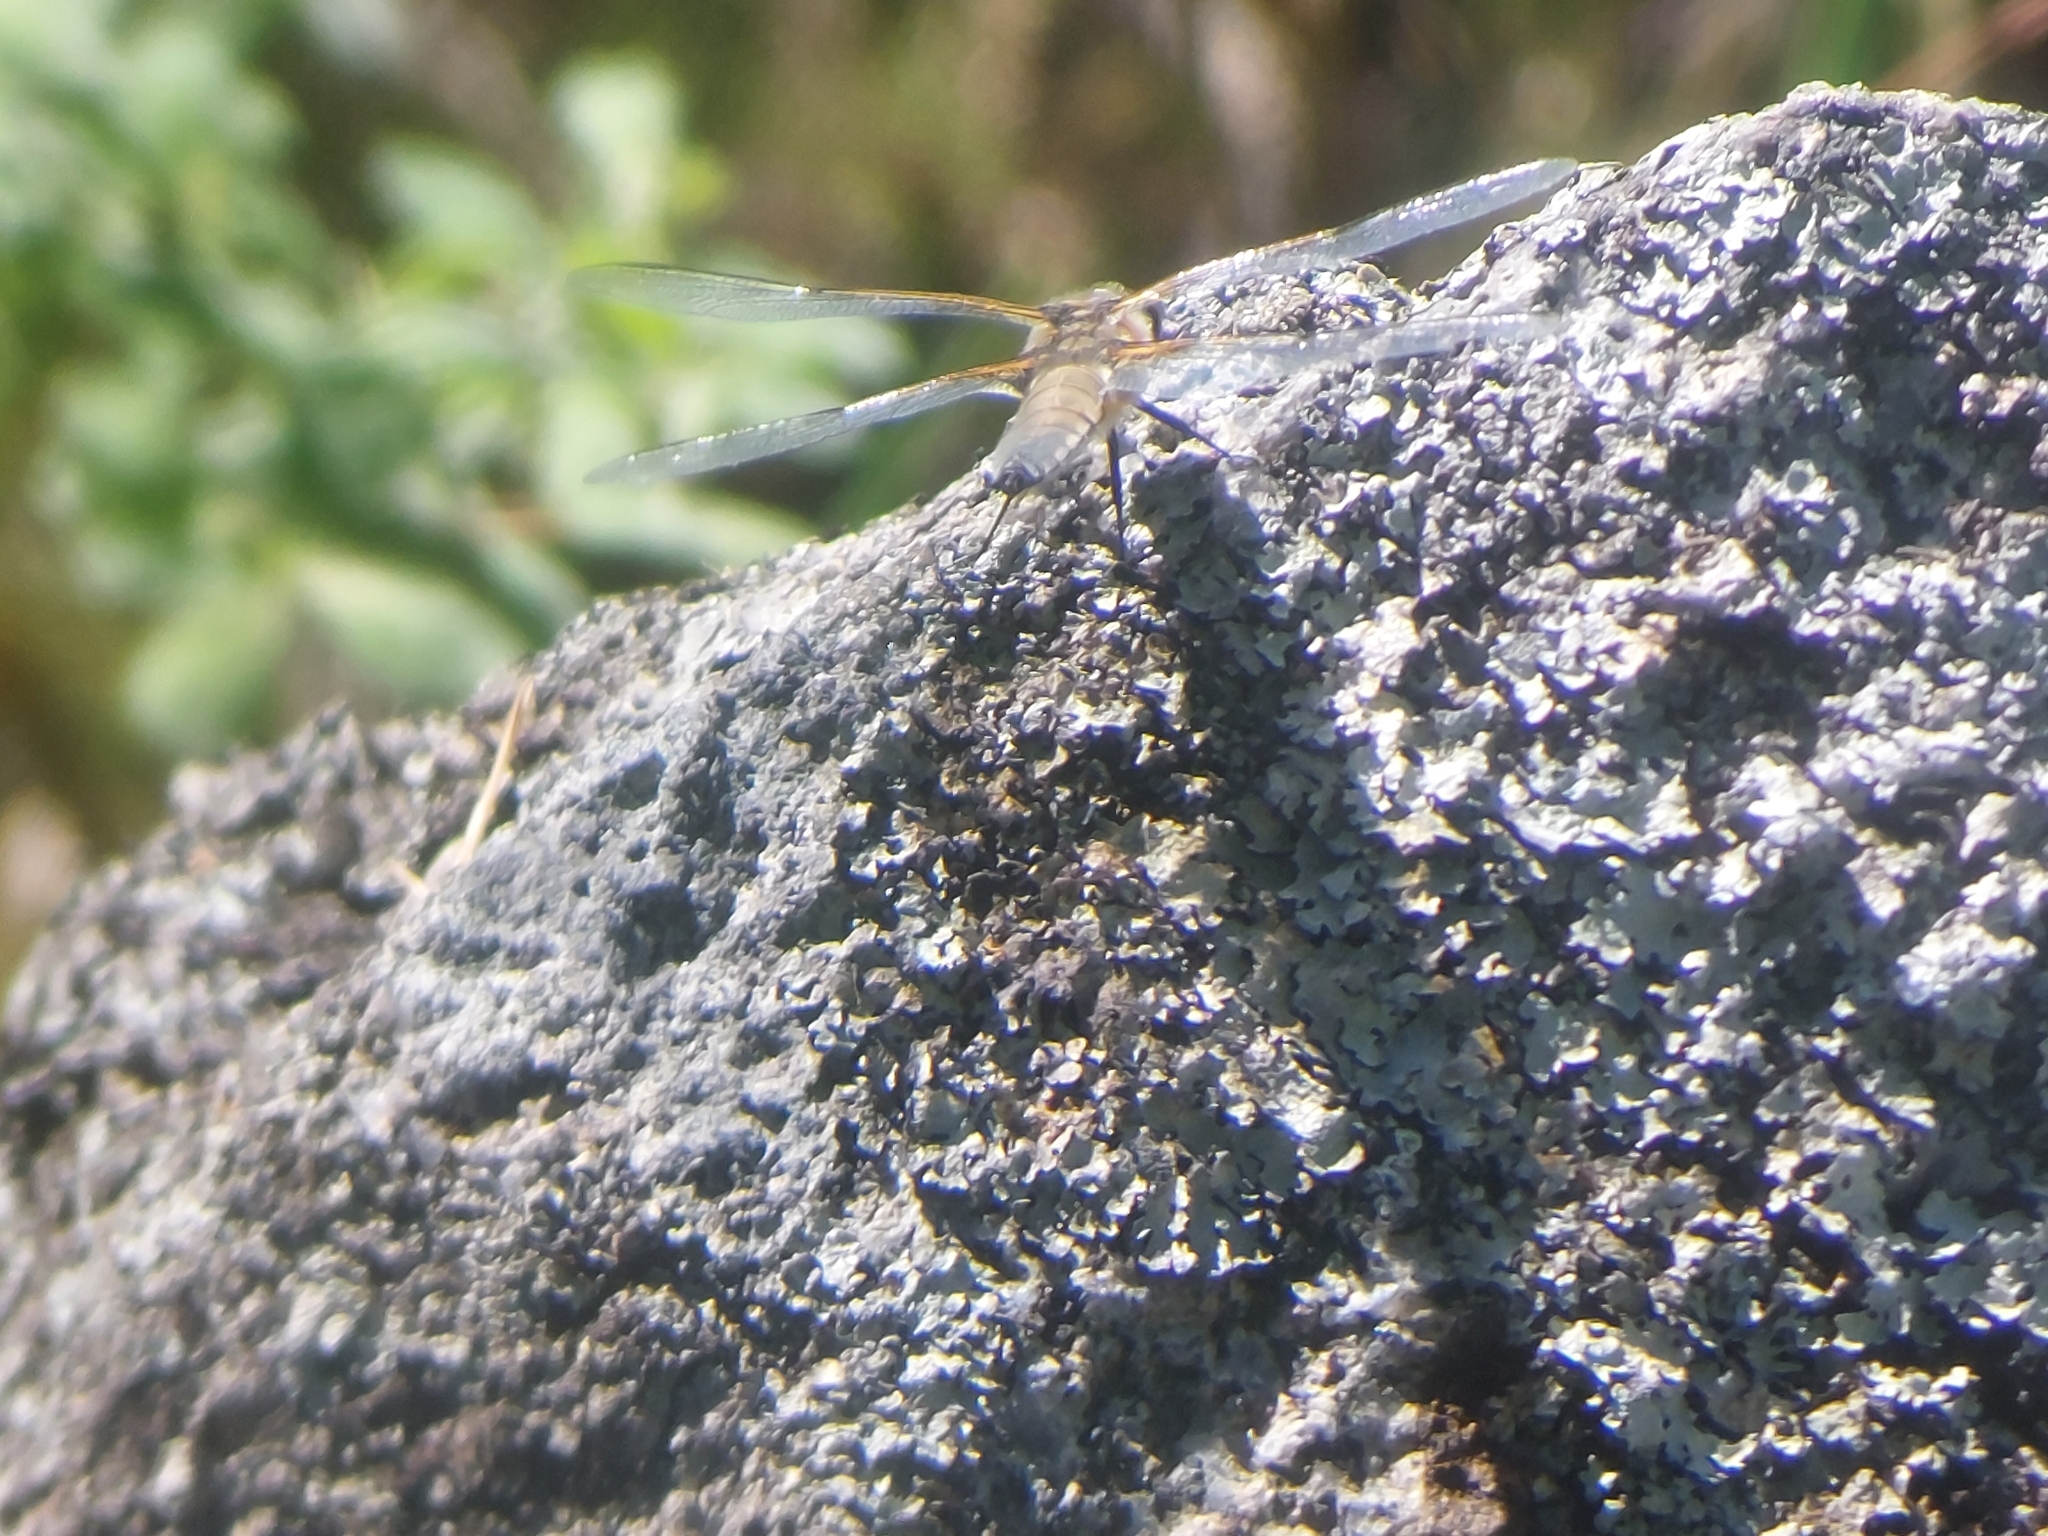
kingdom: Animalia
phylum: Arthropoda
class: Insecta
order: Odonata
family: Libellulidae
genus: Libellula
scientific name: Libellula quadrimaculata
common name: Four-spotted chaser
